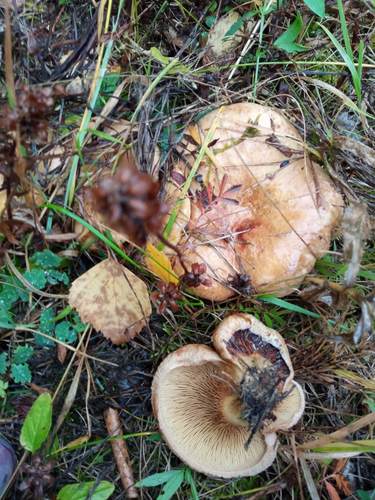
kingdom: Fungi
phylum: Basidiomycota
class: Agaricomycetes
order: Boletales
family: Paxillaceae
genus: Paxillus
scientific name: Paxillus involutus
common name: Brown roll rim
